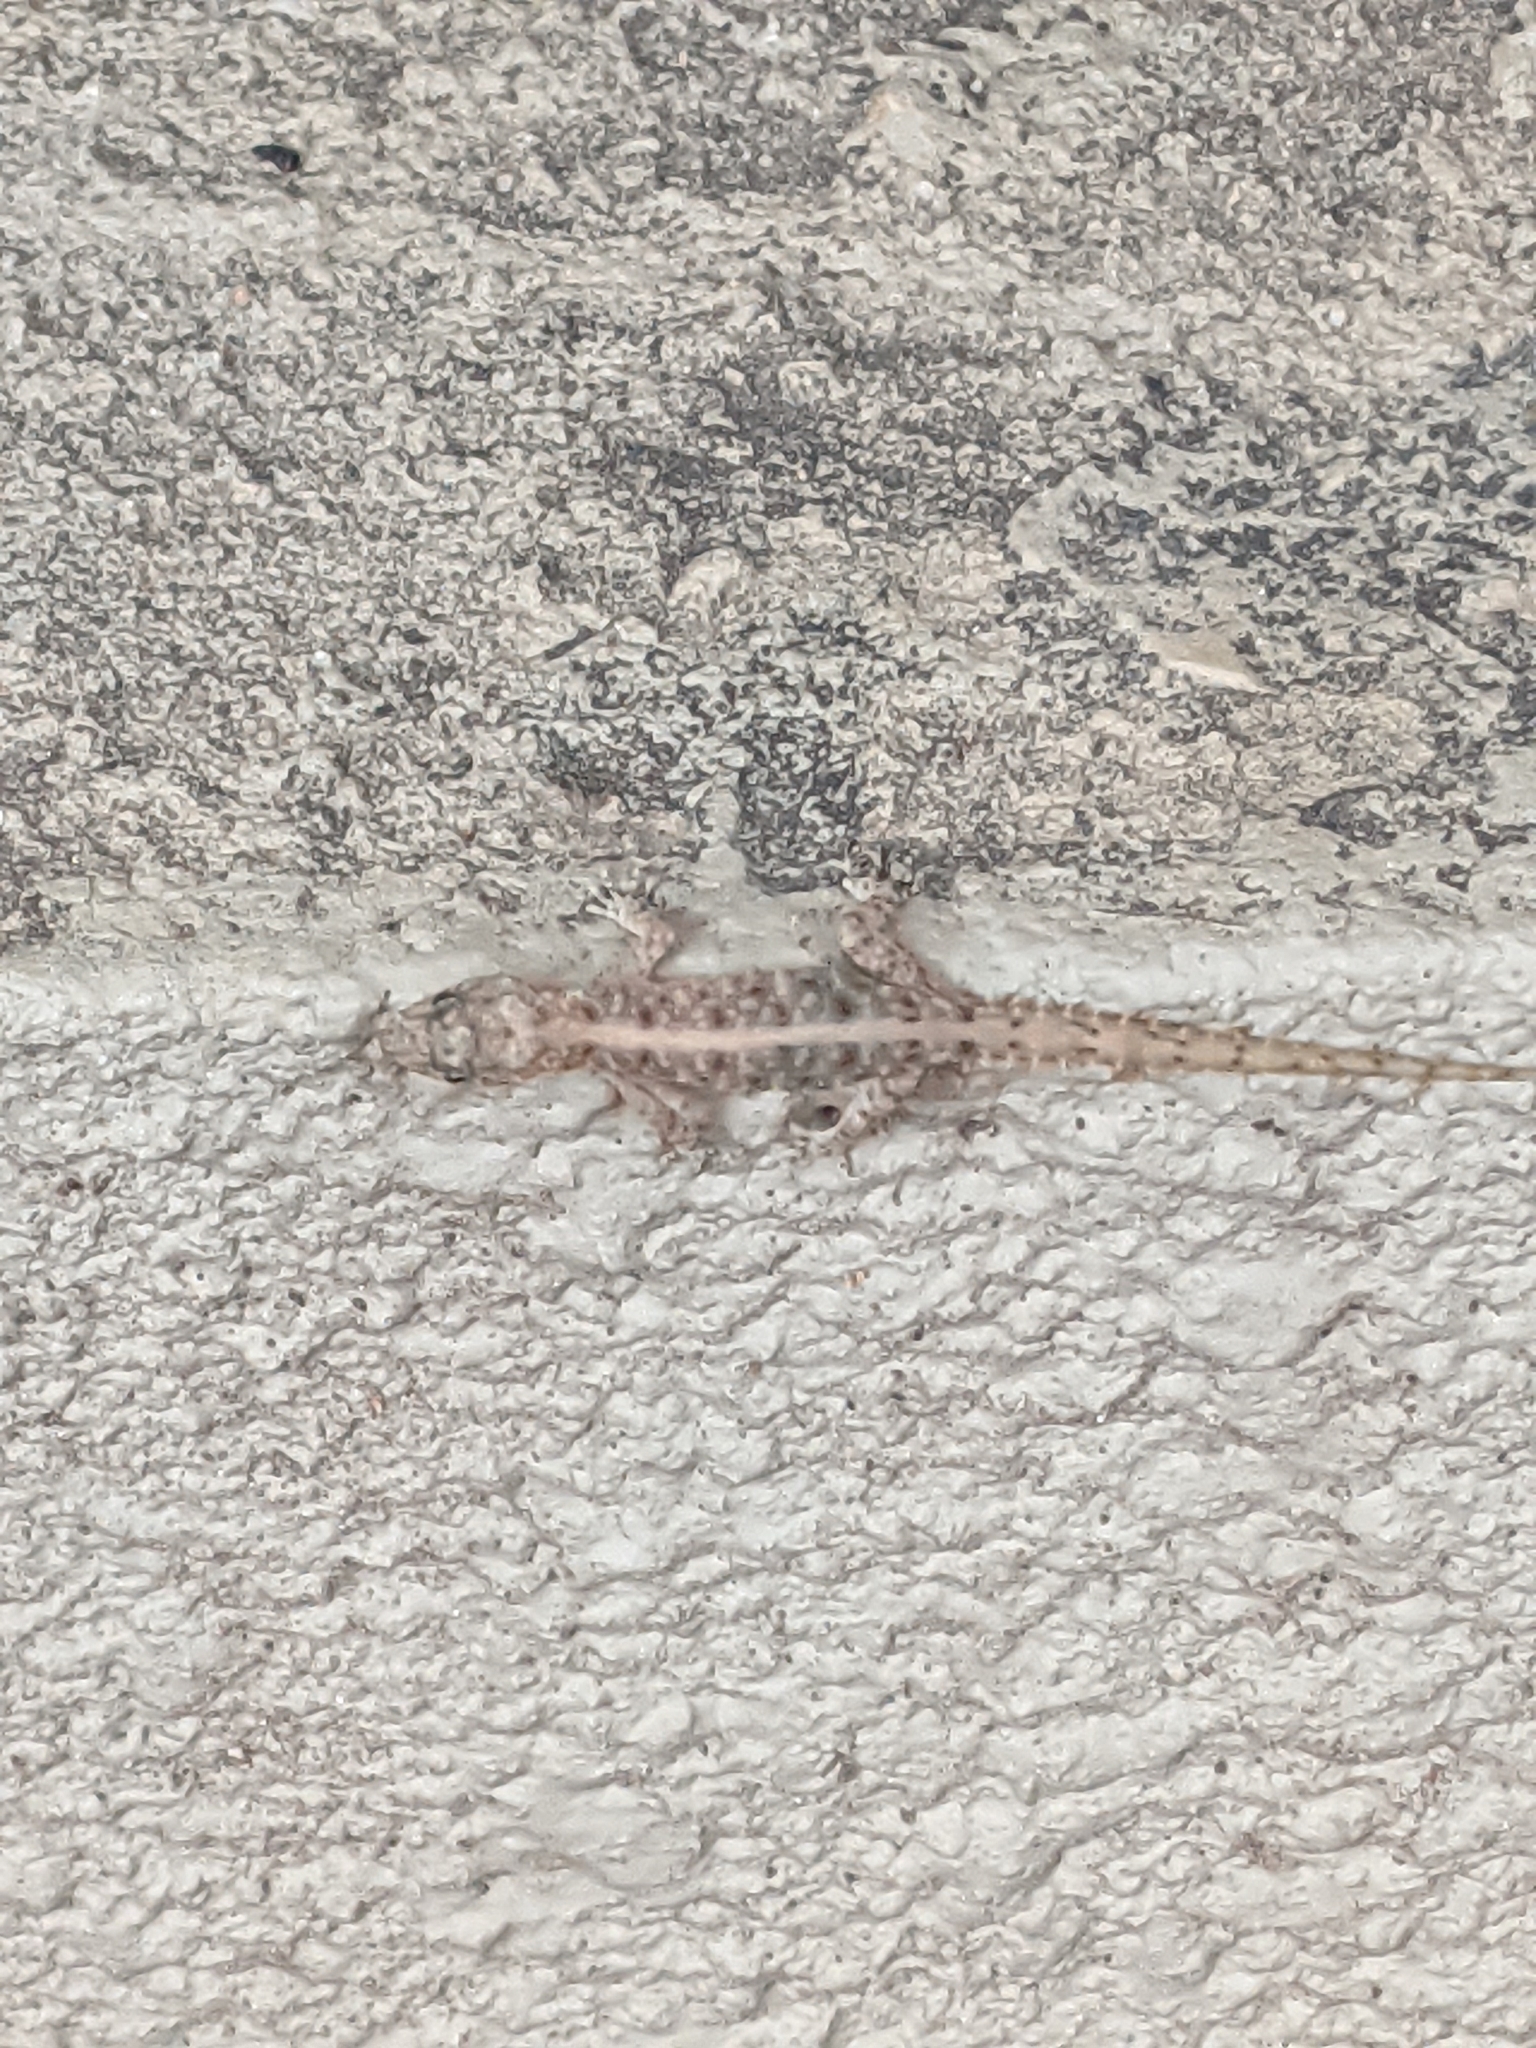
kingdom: Animalia
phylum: Chordata
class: Squamata
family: Gekkonidae
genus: Cnemaspis
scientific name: Cnemaspis mysoriensis
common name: Mysore day gecko
